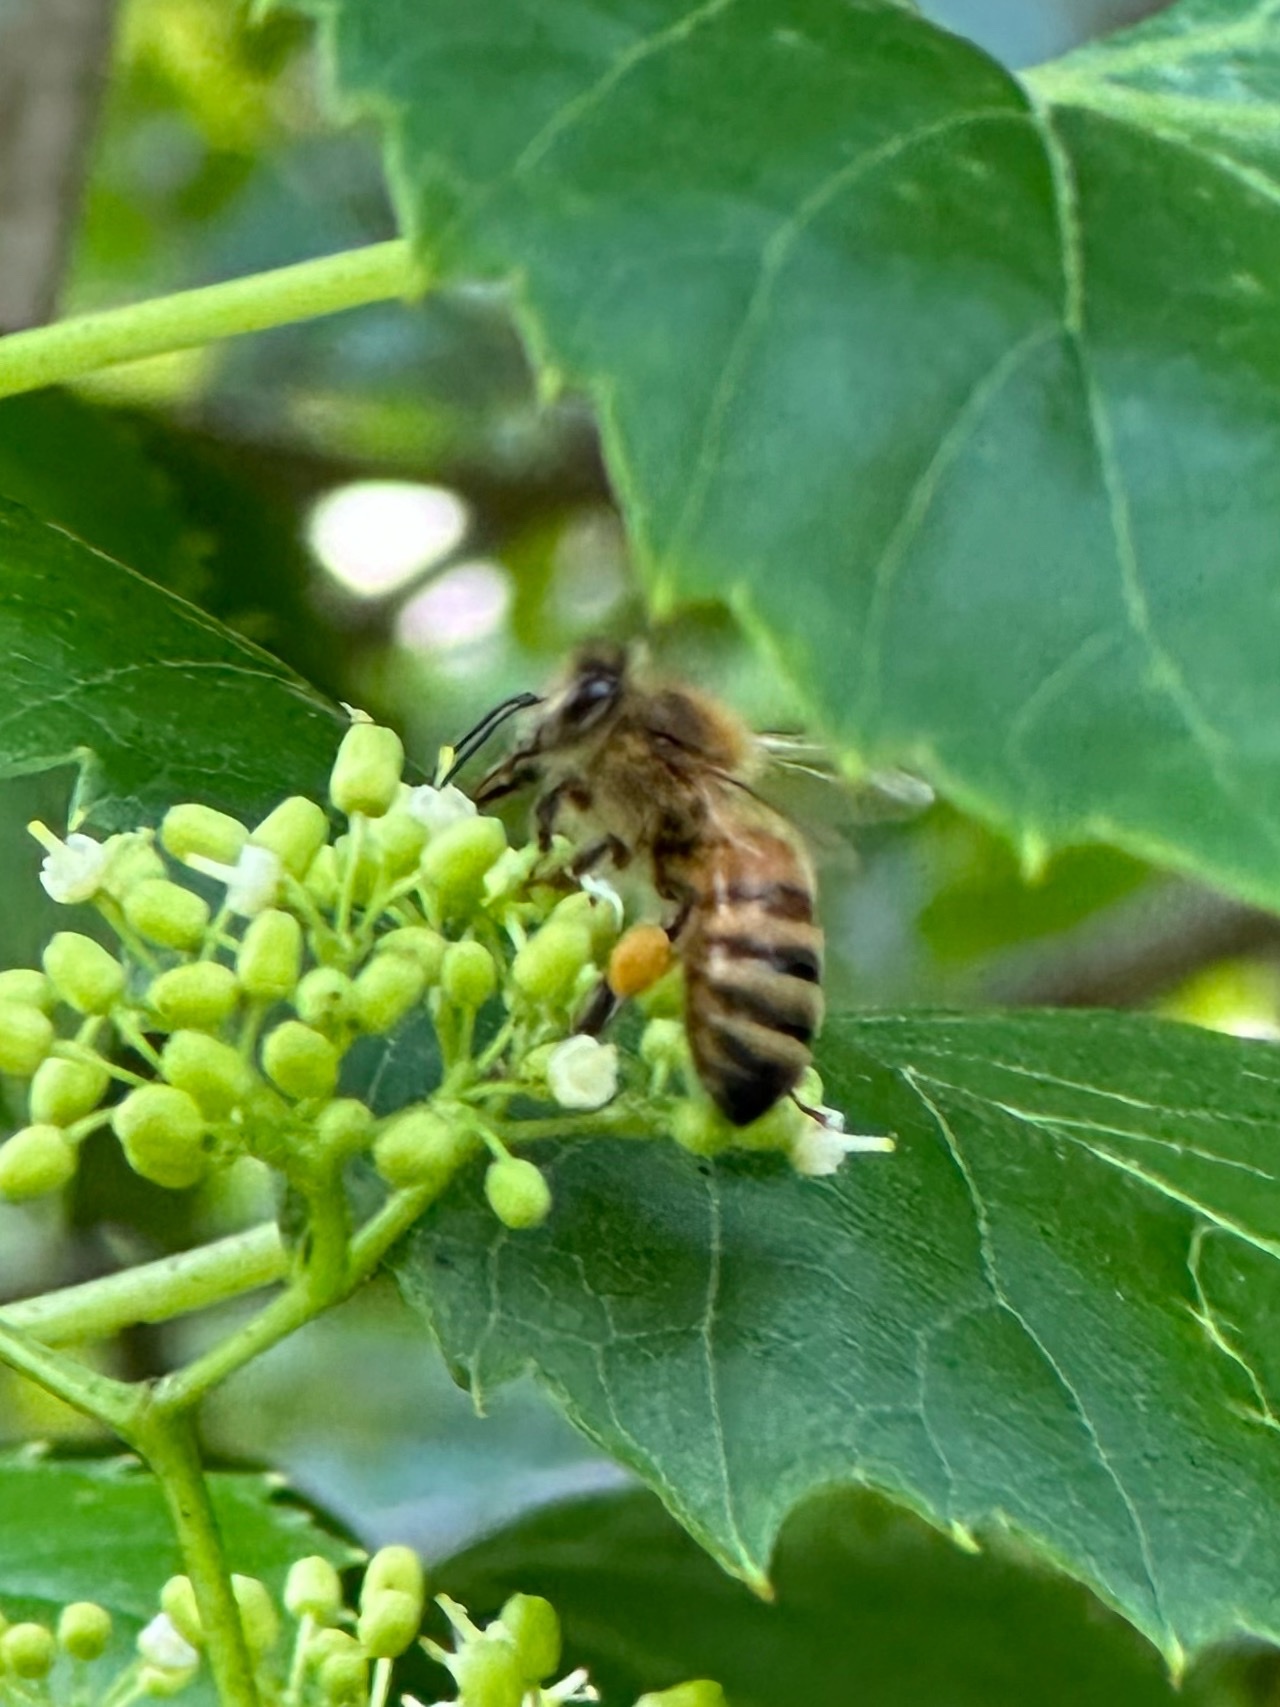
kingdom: Animalia
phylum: Arthropoda
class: Insecta
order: Hymenoptera
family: Apidae
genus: Apis
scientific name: Apis mellifera
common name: Honey bee
